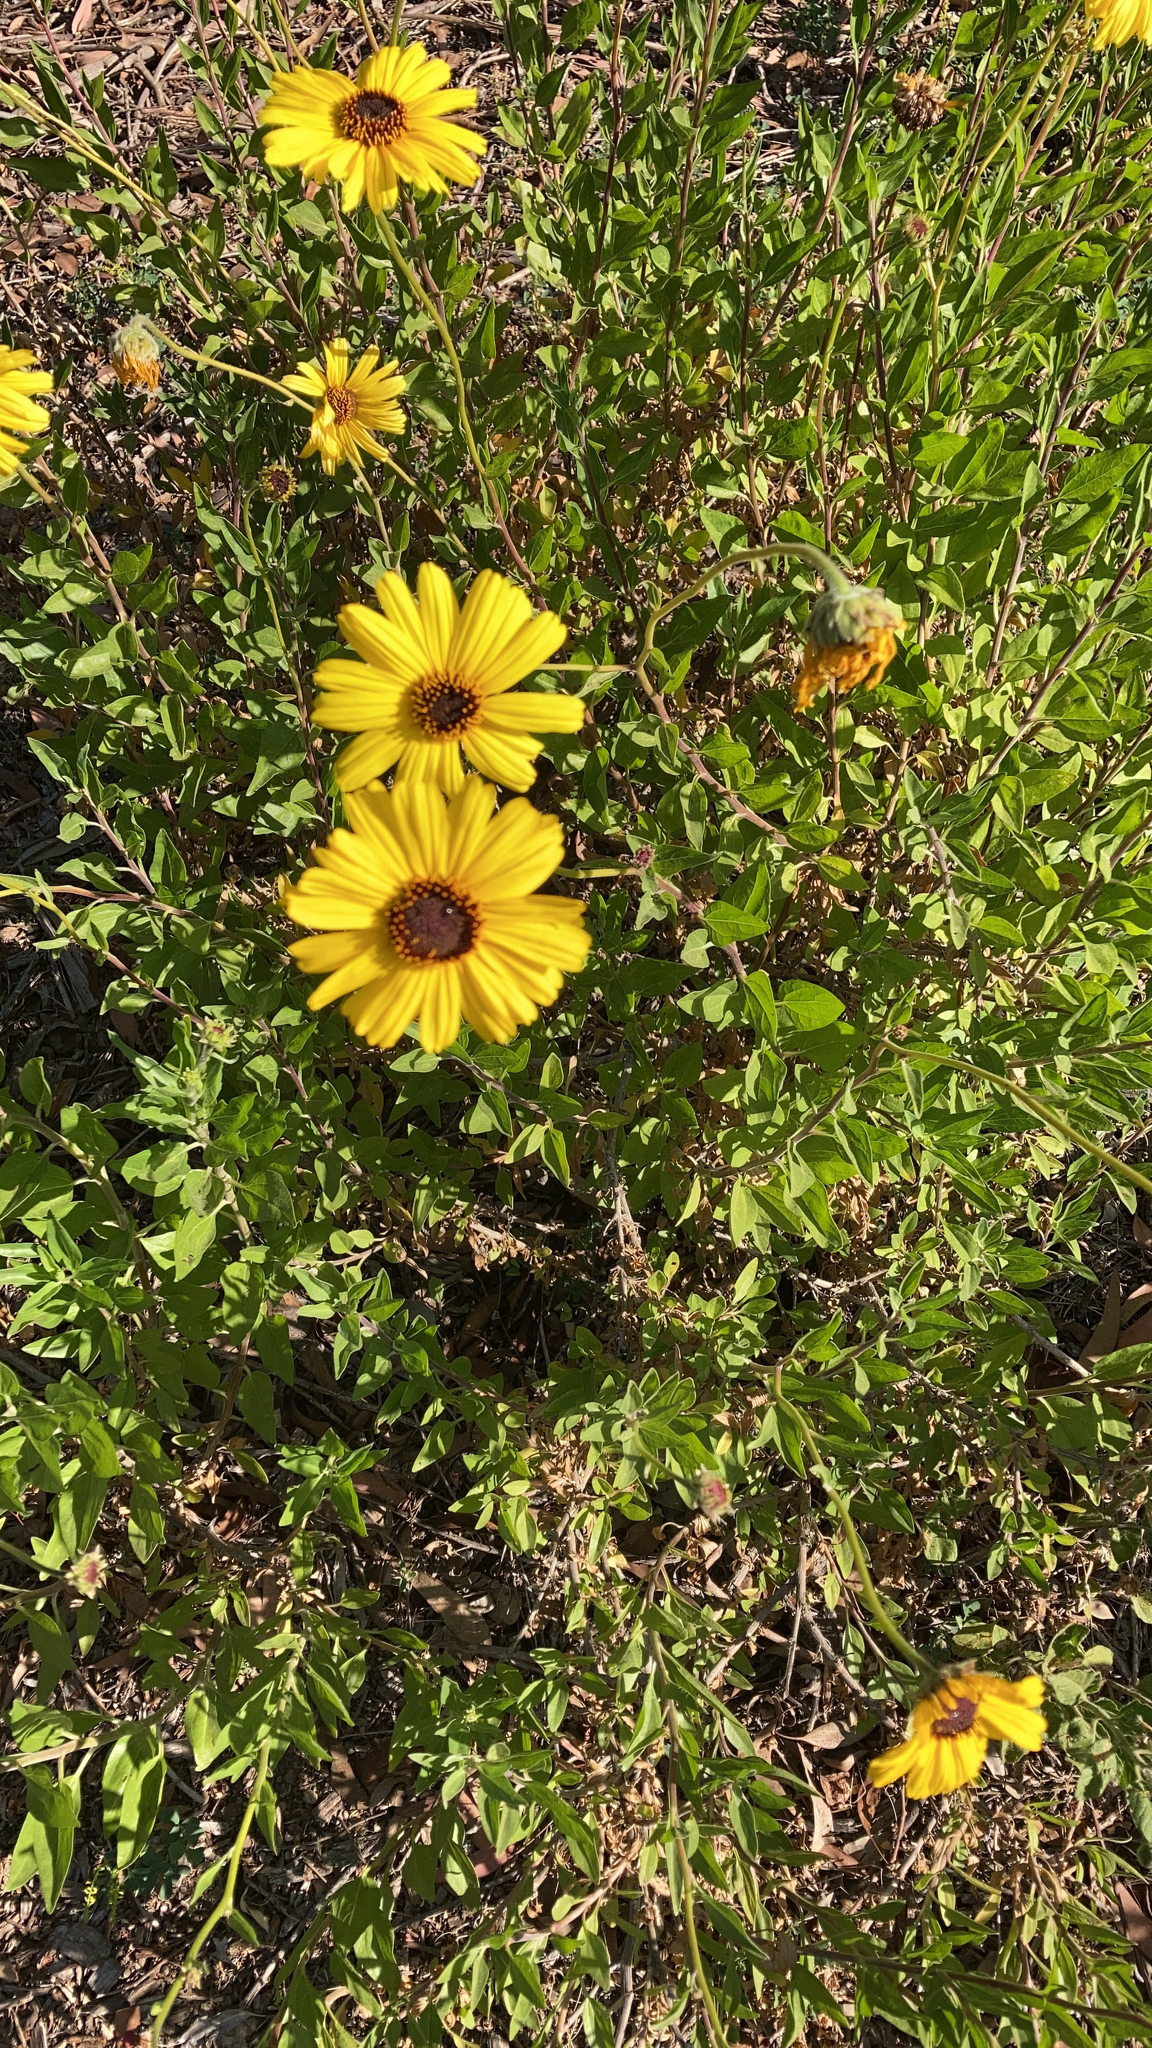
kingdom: Plantae
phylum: Tracheophyta
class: Magnoliopsida
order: Asterales
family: Asteraceae
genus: Encelia
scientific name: Encelia californica
